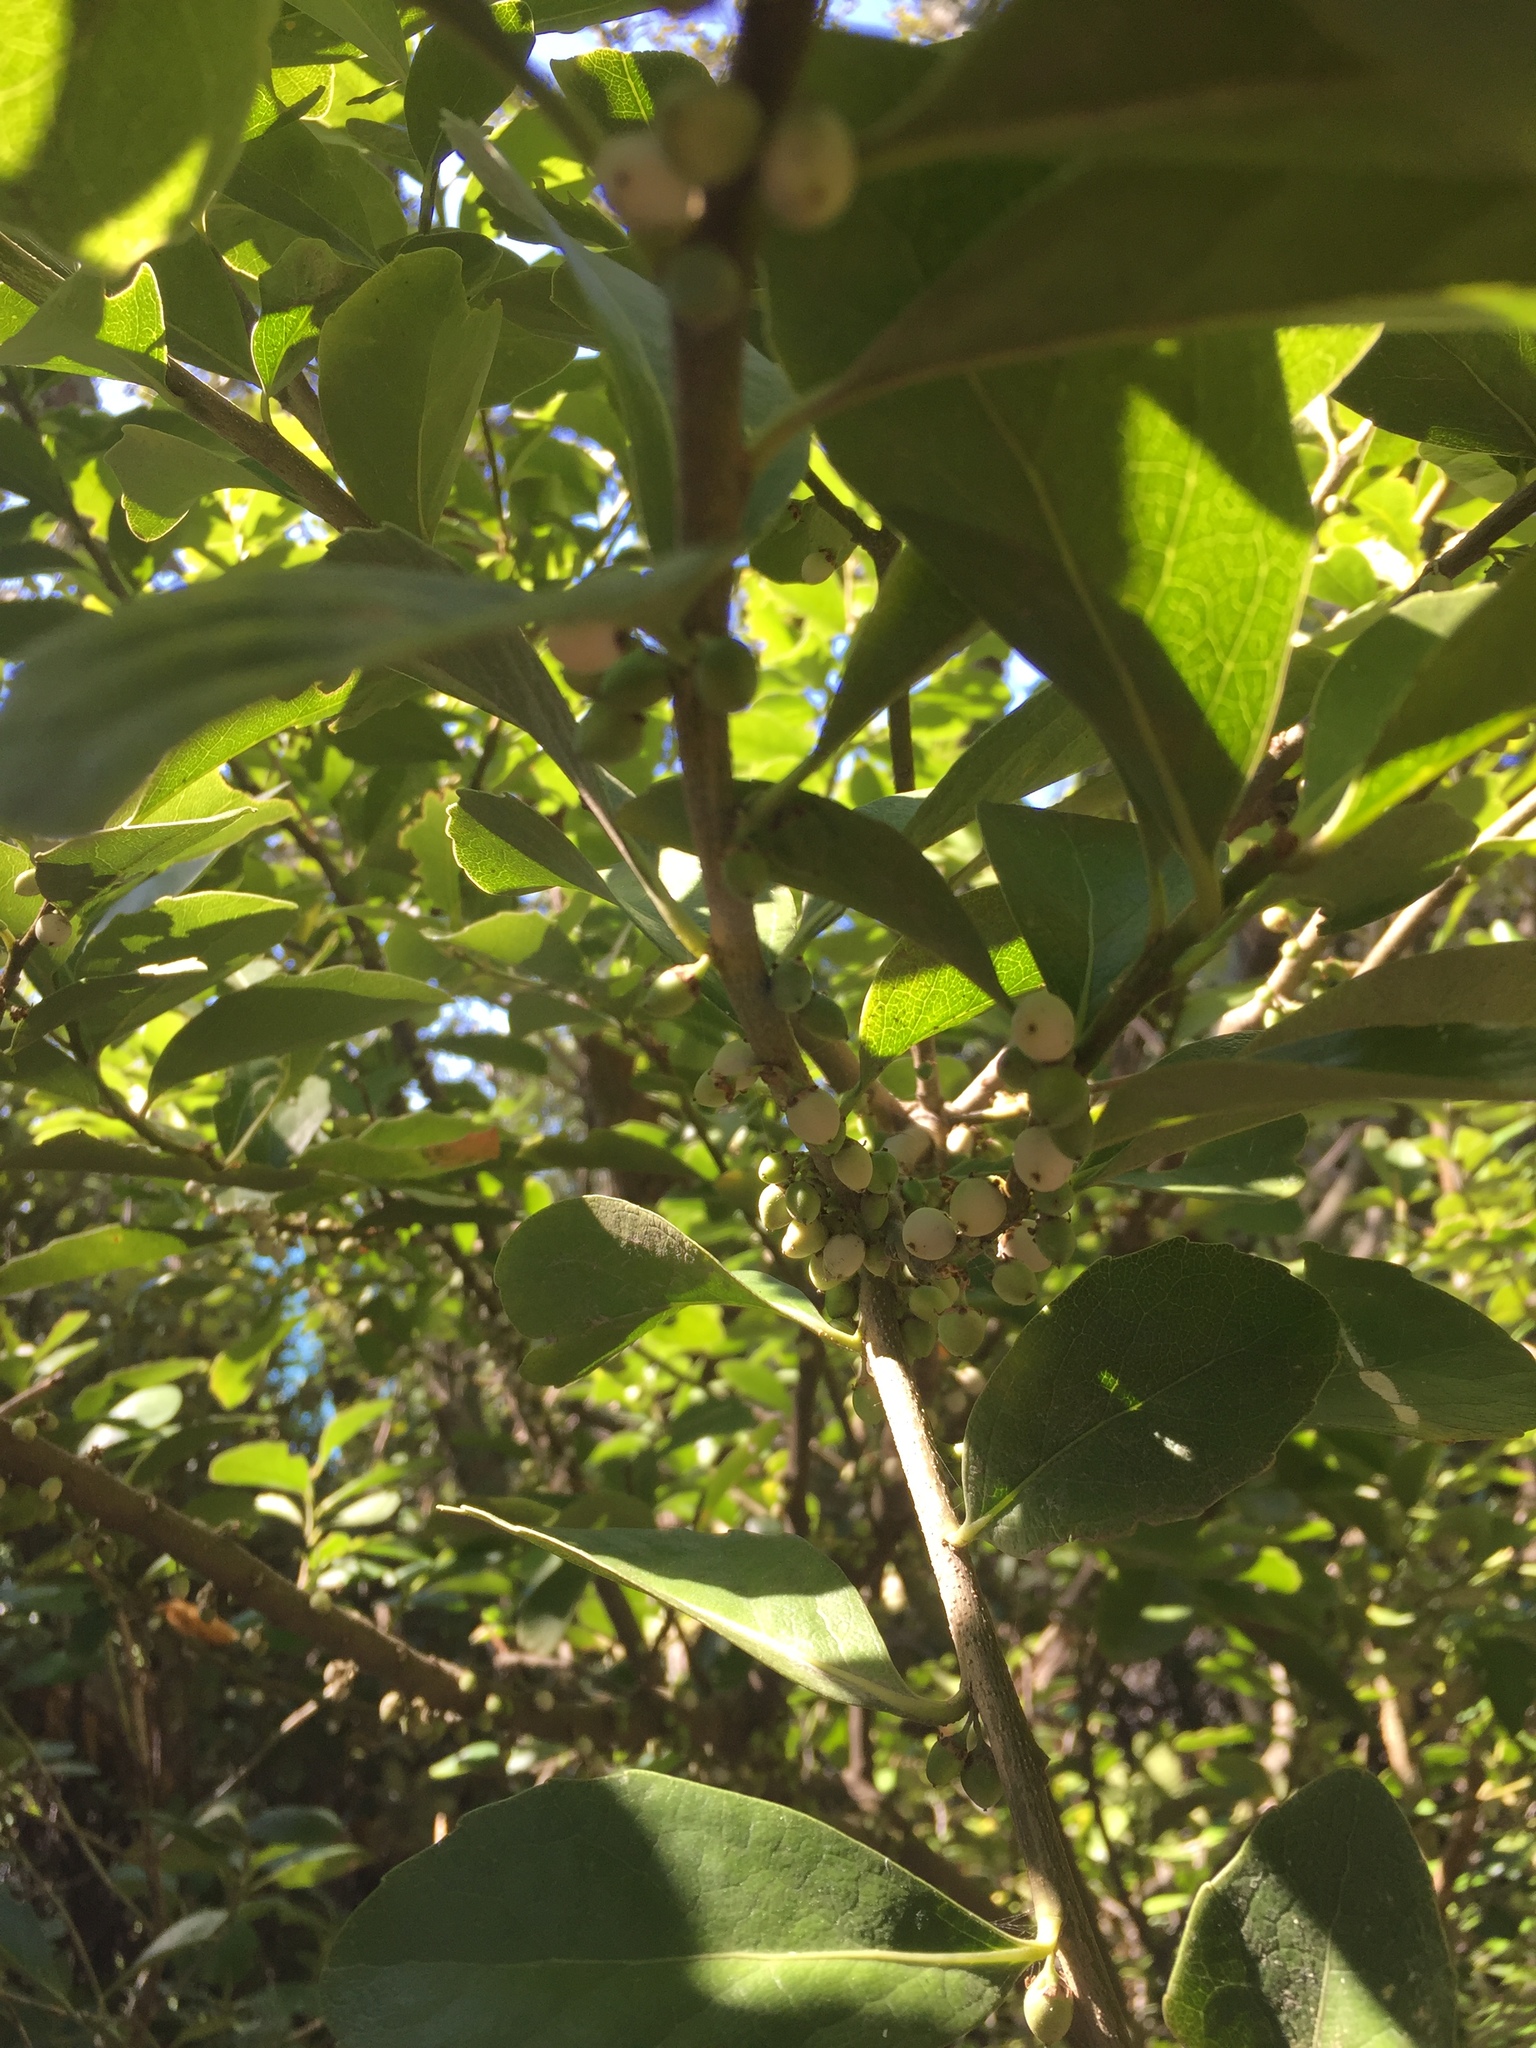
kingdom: Plantae
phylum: Tracheophyta
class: Magnoliopsida
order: Malpighiales
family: Violaceae
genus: Melicytus
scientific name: Melicytus novae-zelandiae
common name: Coastal mahoe
